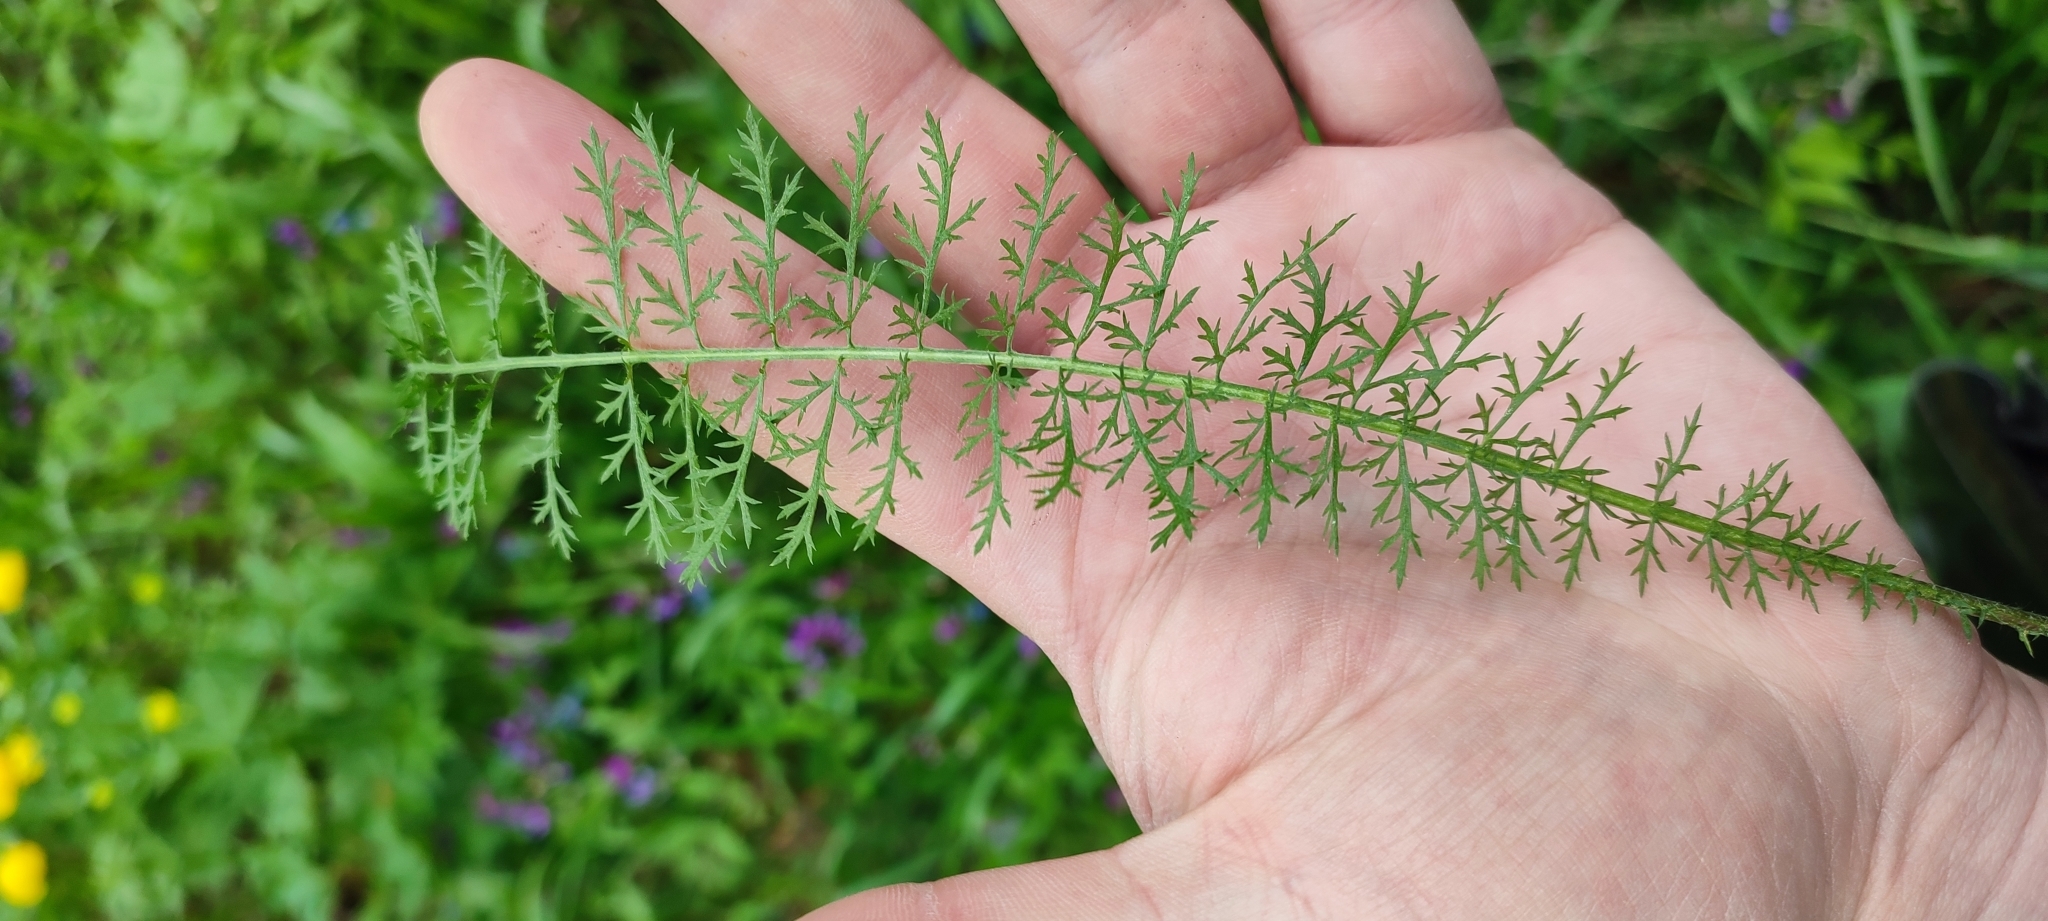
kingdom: Plantae
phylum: Tracheophyta
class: Magnoliopsida
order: Asterales
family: Asteraceae
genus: Achillea
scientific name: Achillea asiatica
